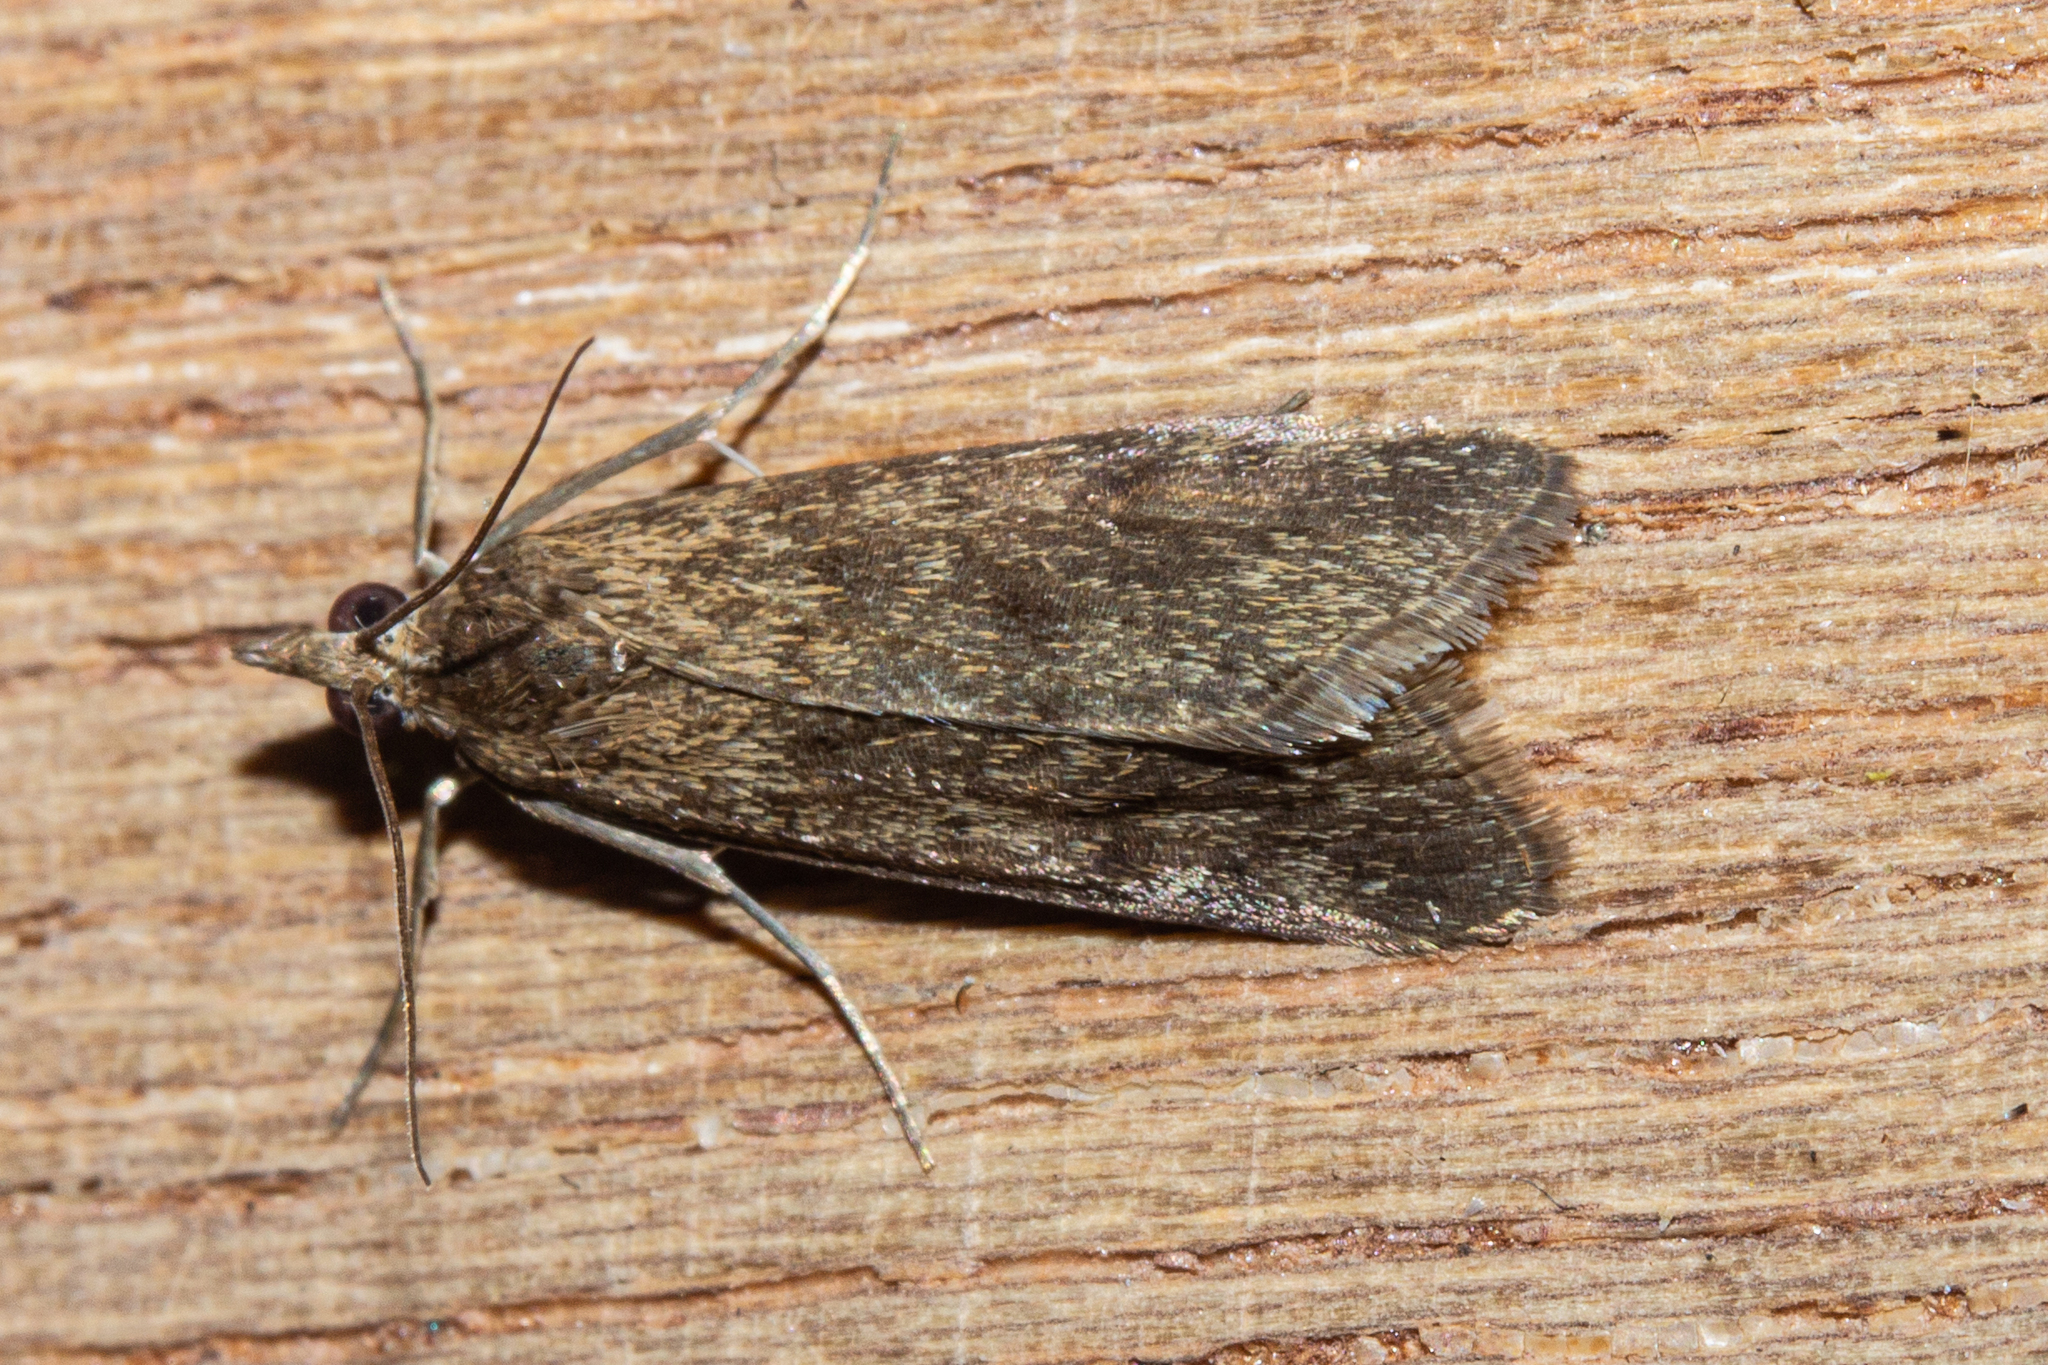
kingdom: Animalia
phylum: Arthropoda
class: Insecta
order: Lepidoptera
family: Crambidae
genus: Achyra
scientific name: Achyra affinitalis
